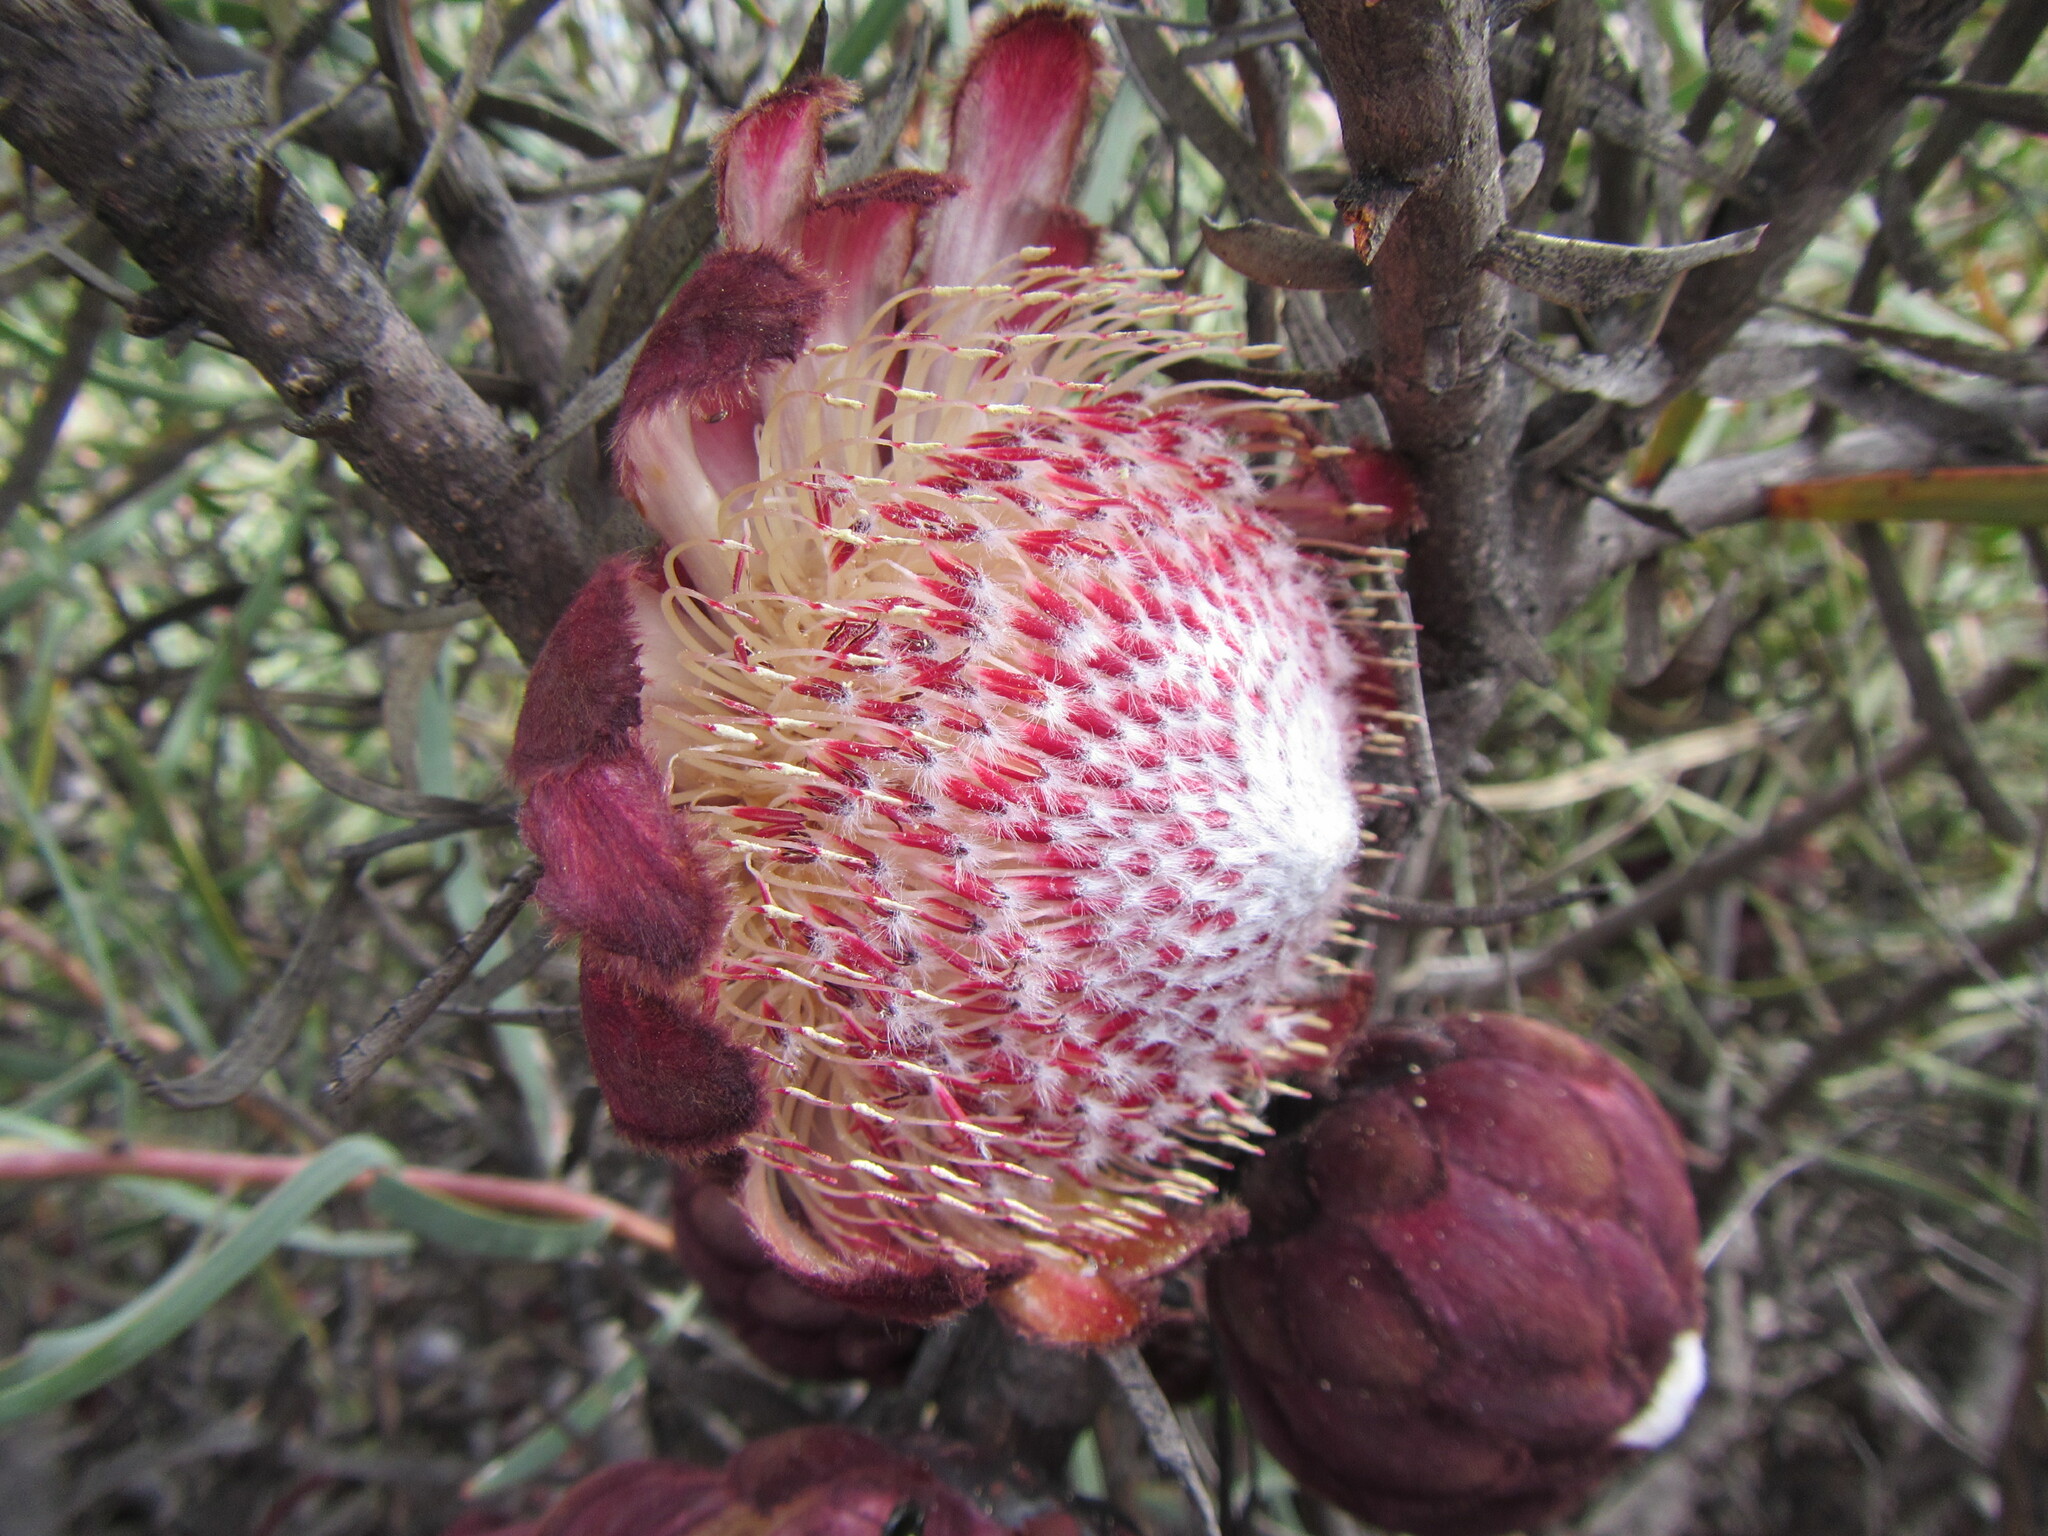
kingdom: Plantae
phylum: Tracheophyta
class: Magnoliopsida
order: Proteales
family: Proteaceae
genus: Protea
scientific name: Protea humiflora
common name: Patent-leaf sugarbush
